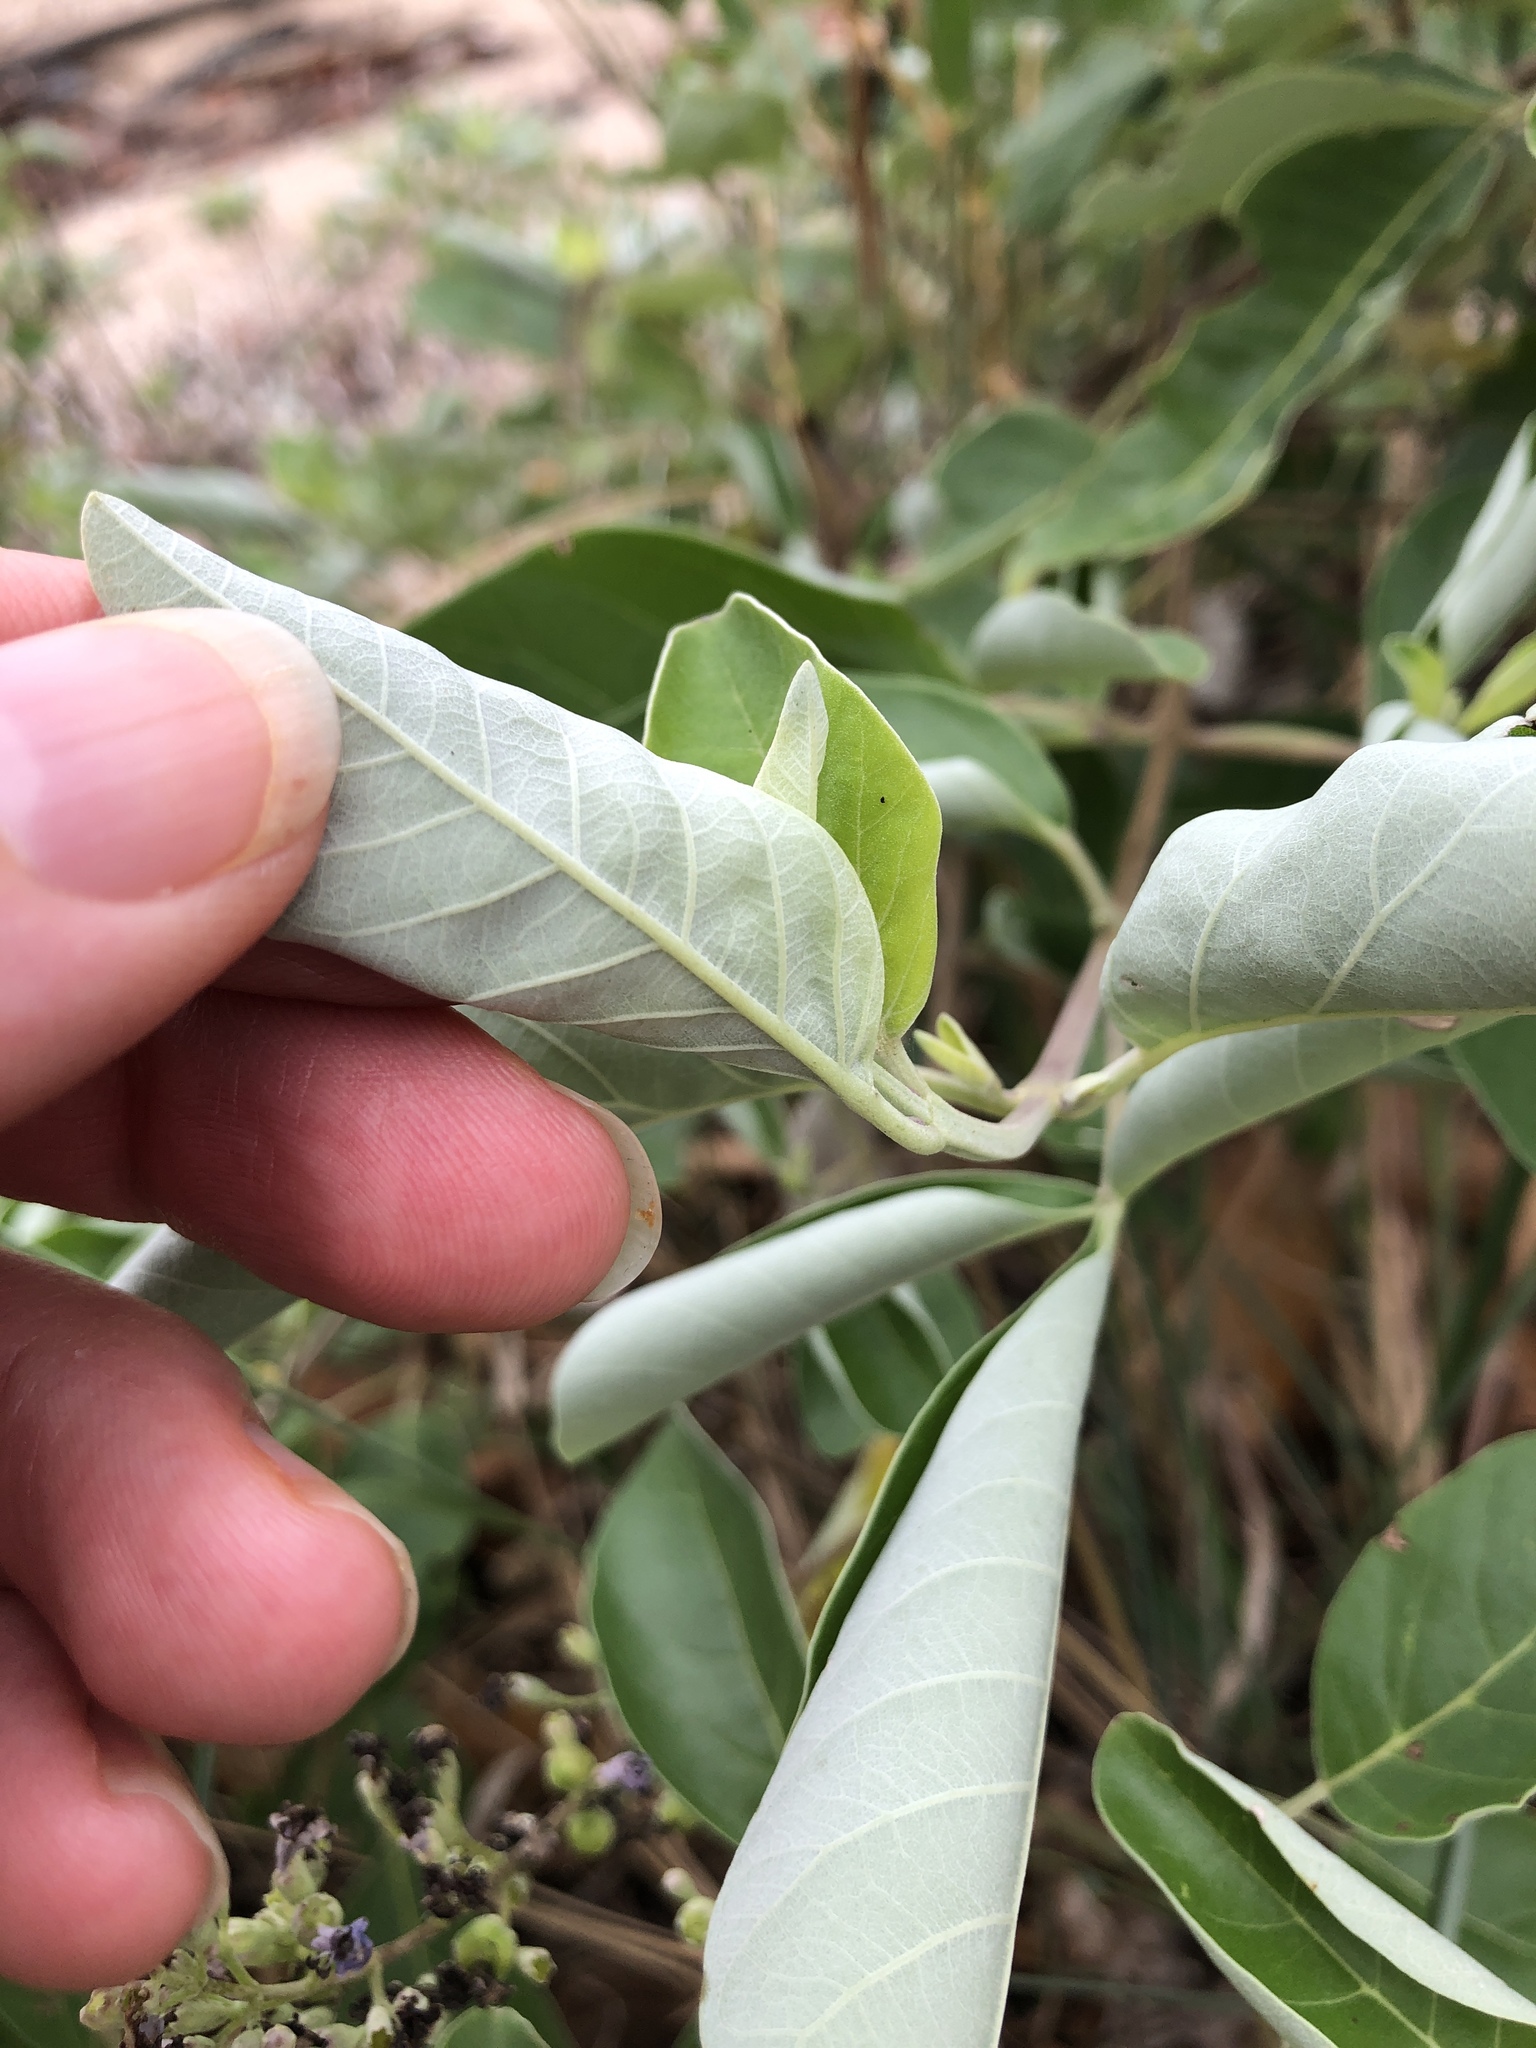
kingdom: Plantae
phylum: Tracheophyta
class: Magnoliopsida
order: Lamiales
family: Lamiaceae
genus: Vitex
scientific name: Vitex rotundifolia
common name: Beach vitex
